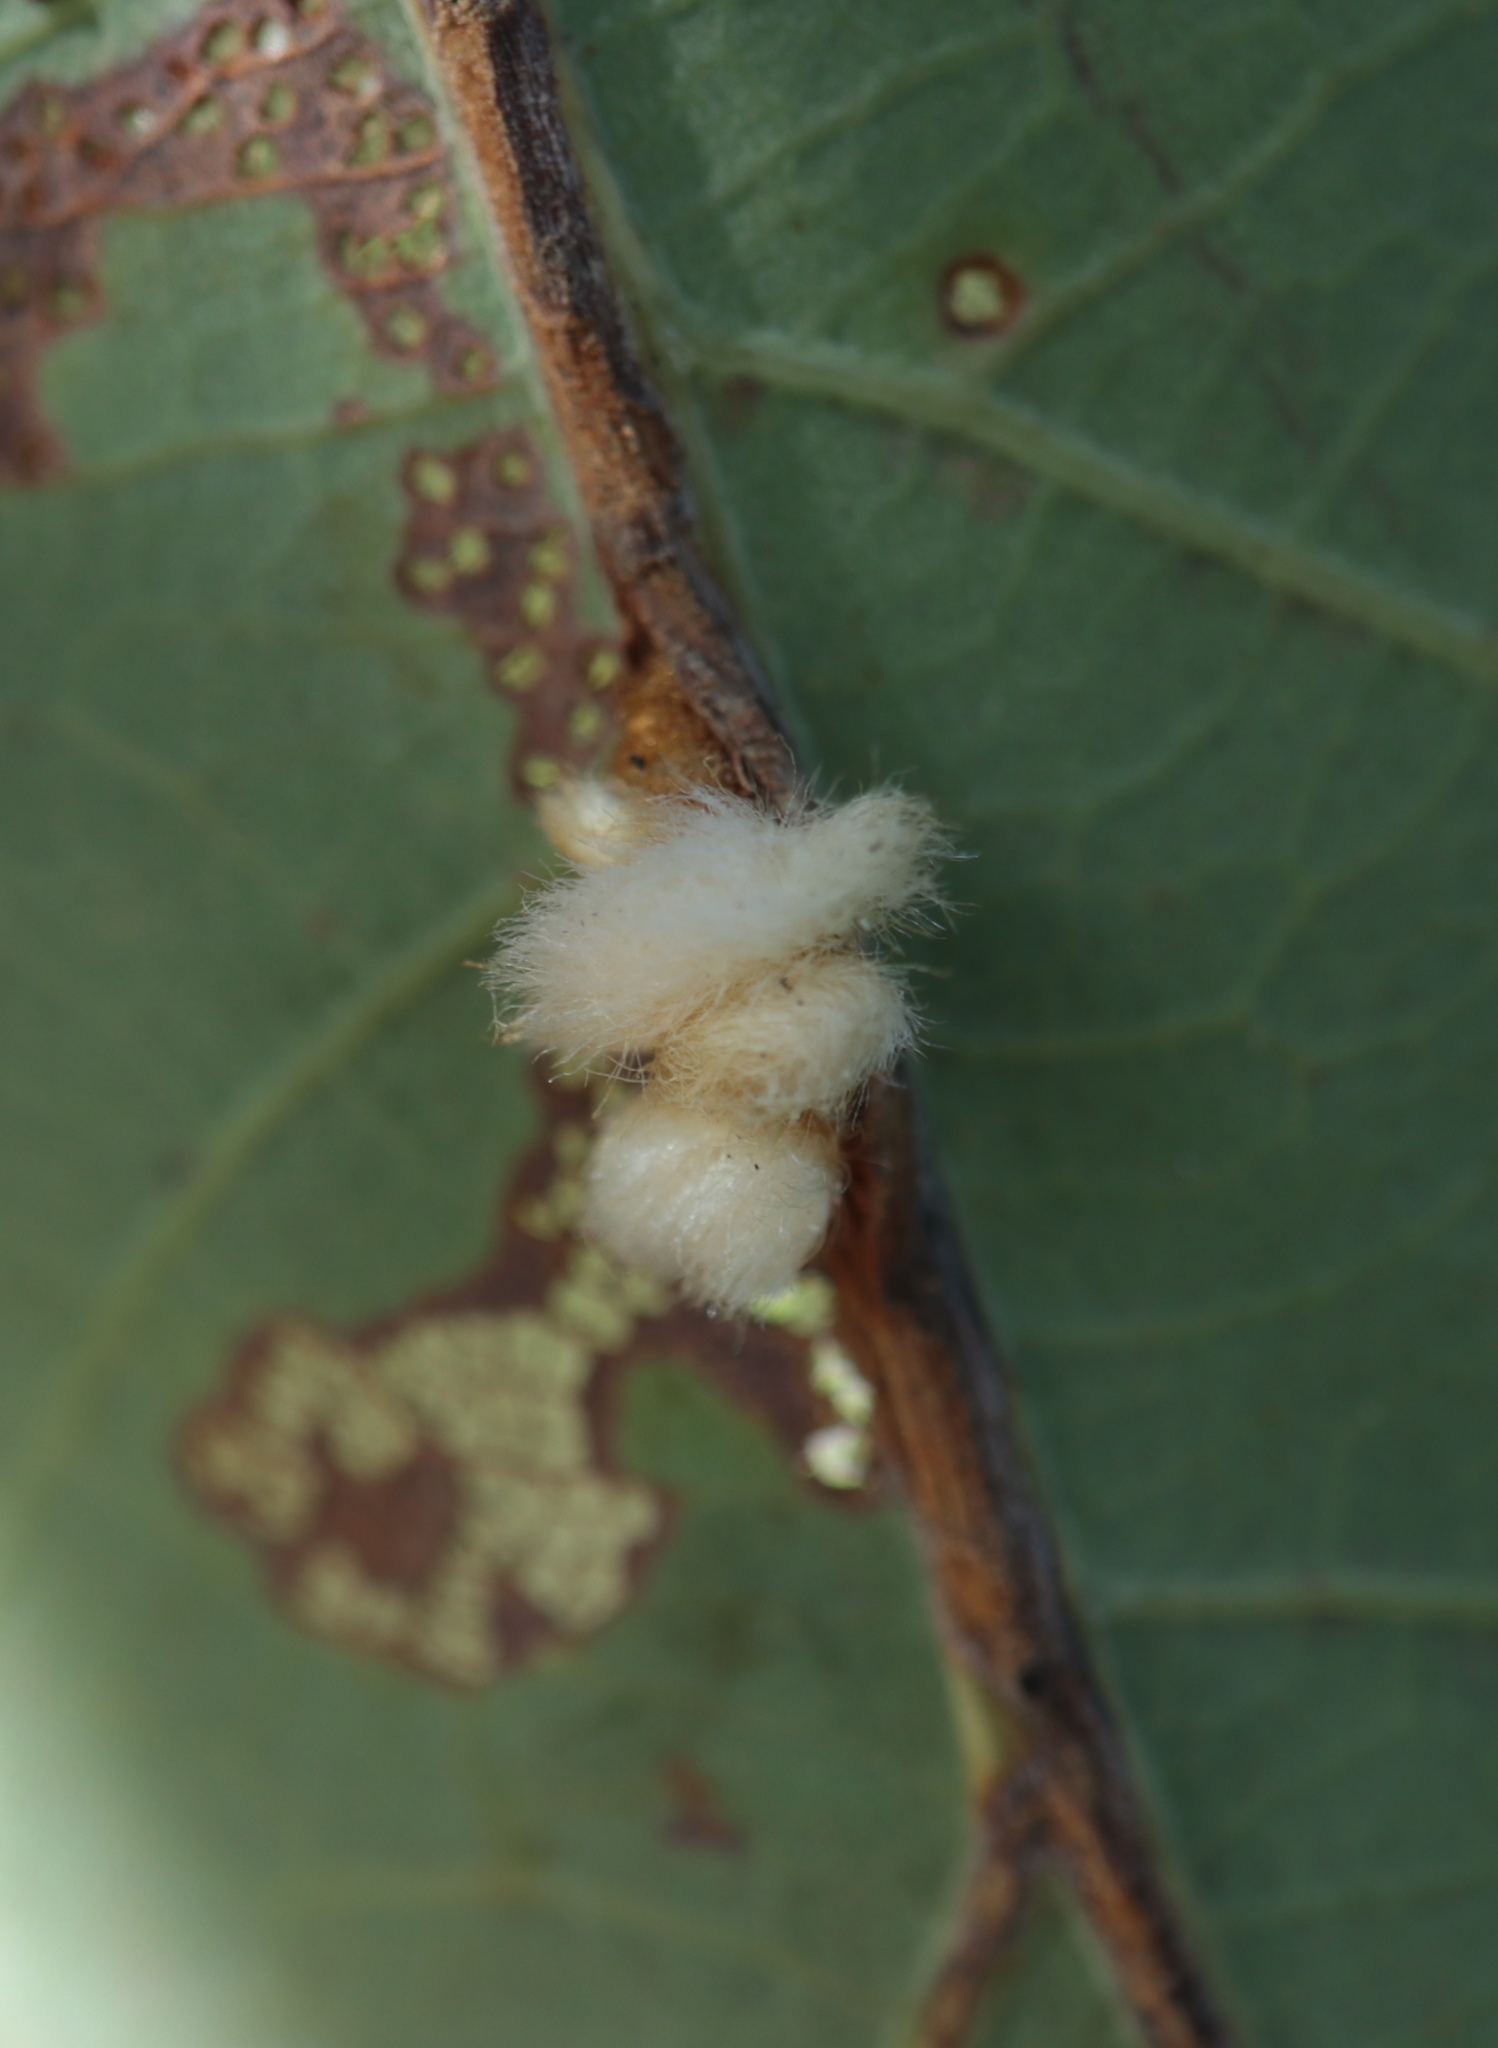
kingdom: Animalia
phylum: Arthropoda
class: Insecta
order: Hymenoptera
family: Cynipidae
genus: Andricus
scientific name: Andricus
